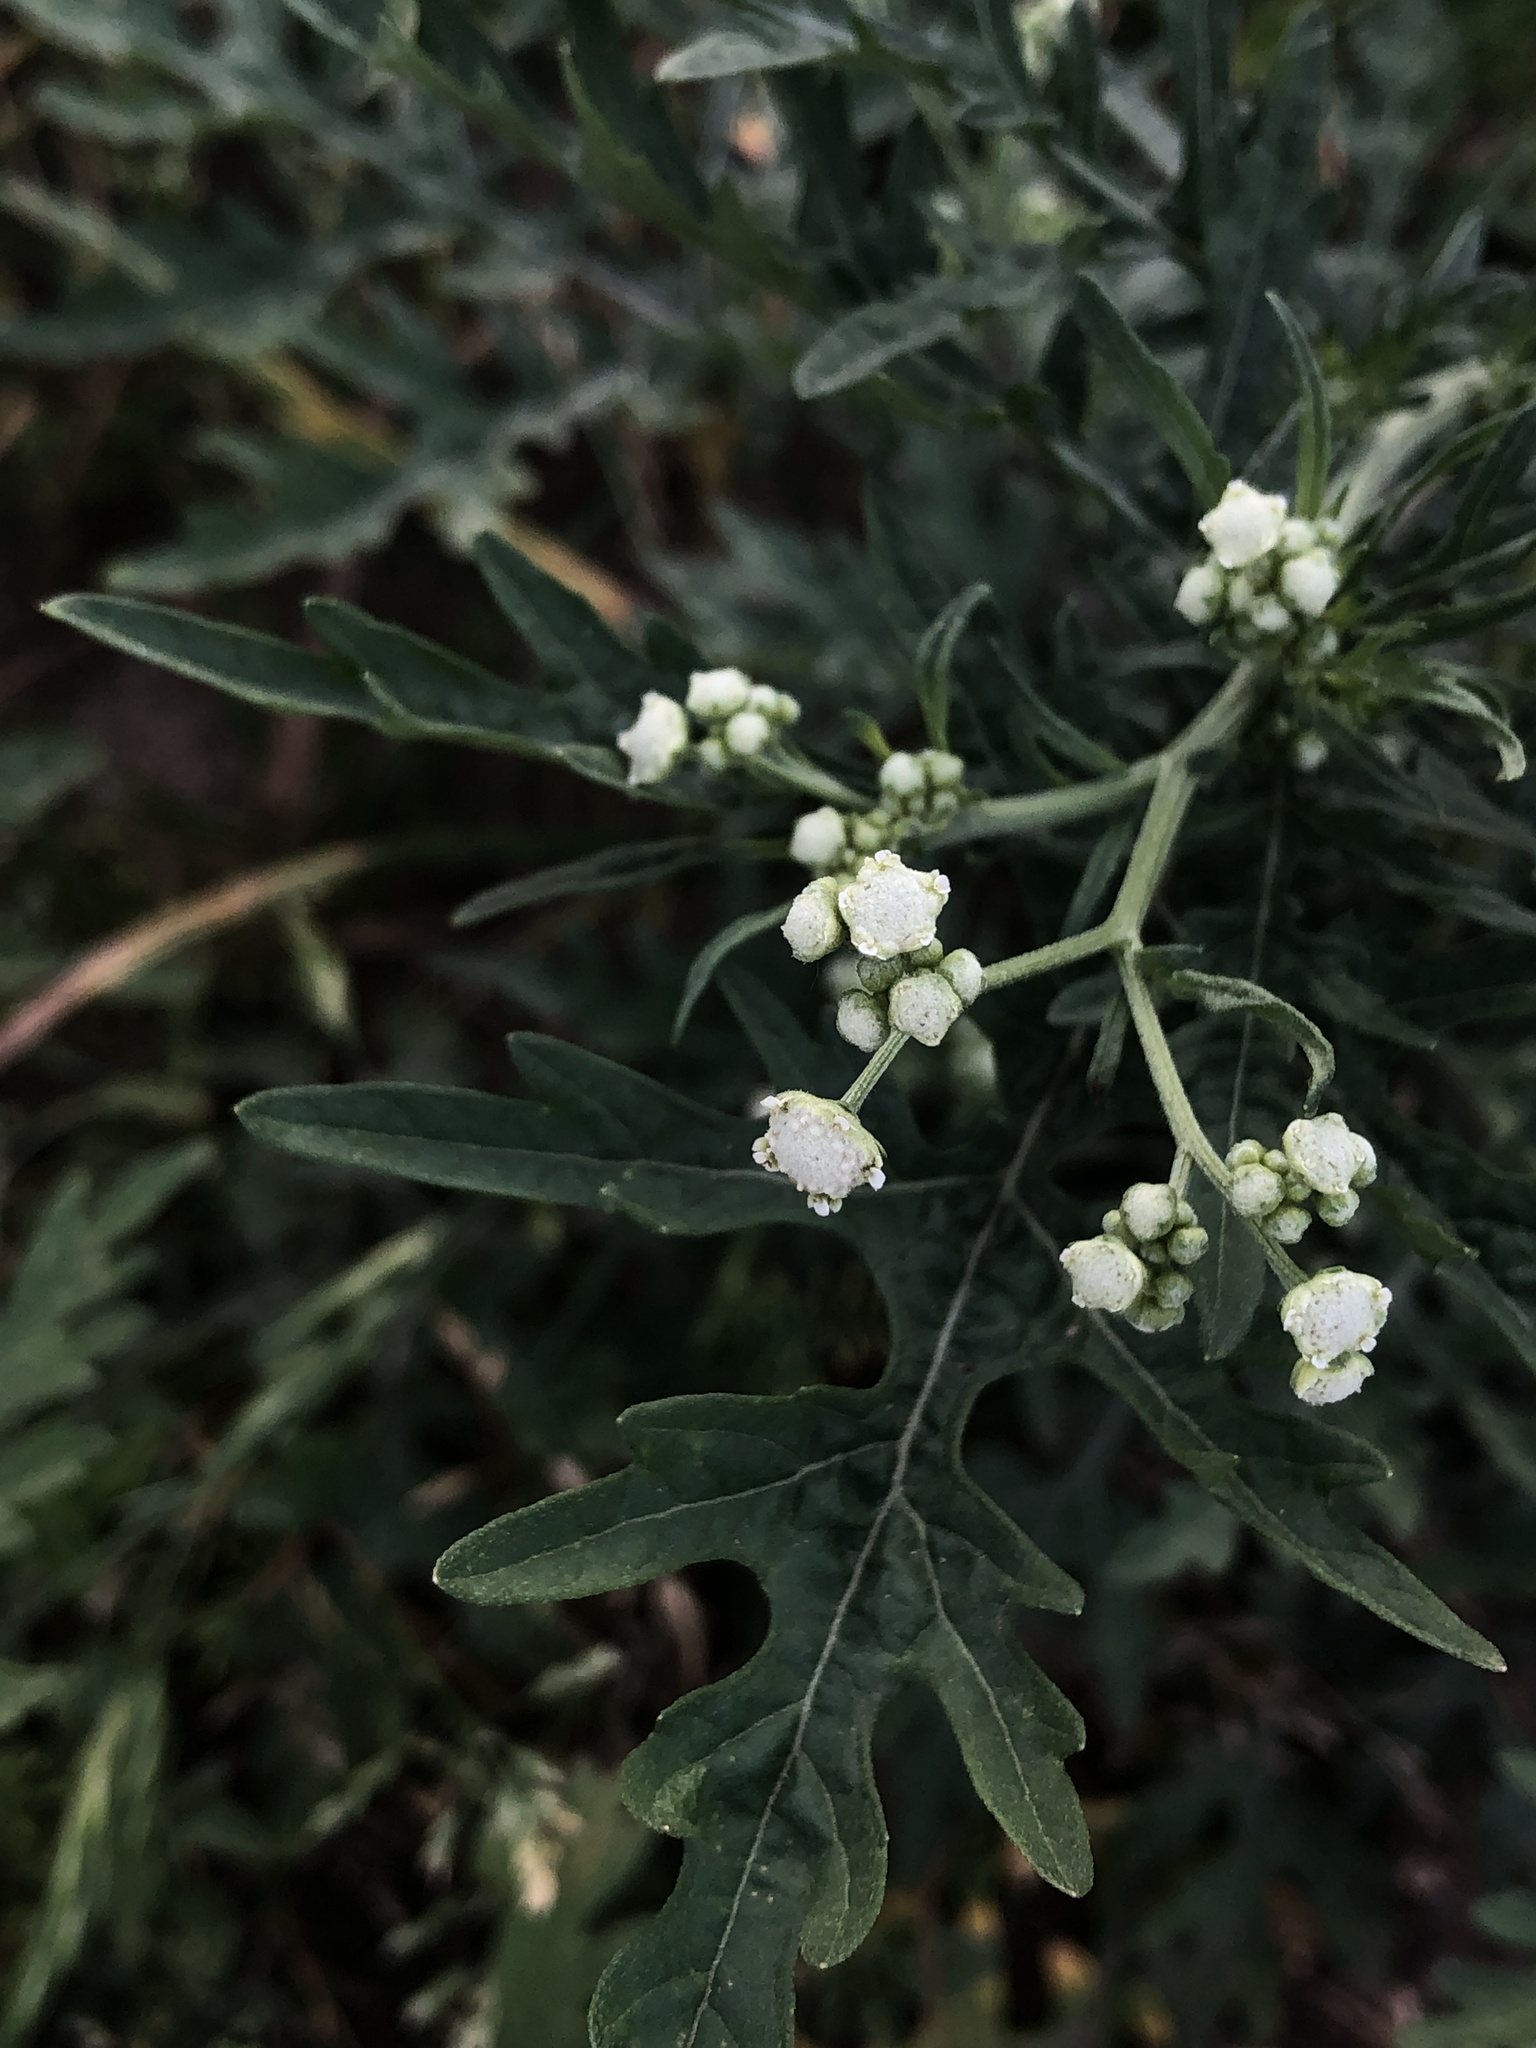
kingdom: Plantae
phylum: Tracheophyta
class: Magnoliopsida
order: Asterales
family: Asteraceae
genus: Parthenium
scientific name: Parthenium hysterophorus
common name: Santa maria feverfew
